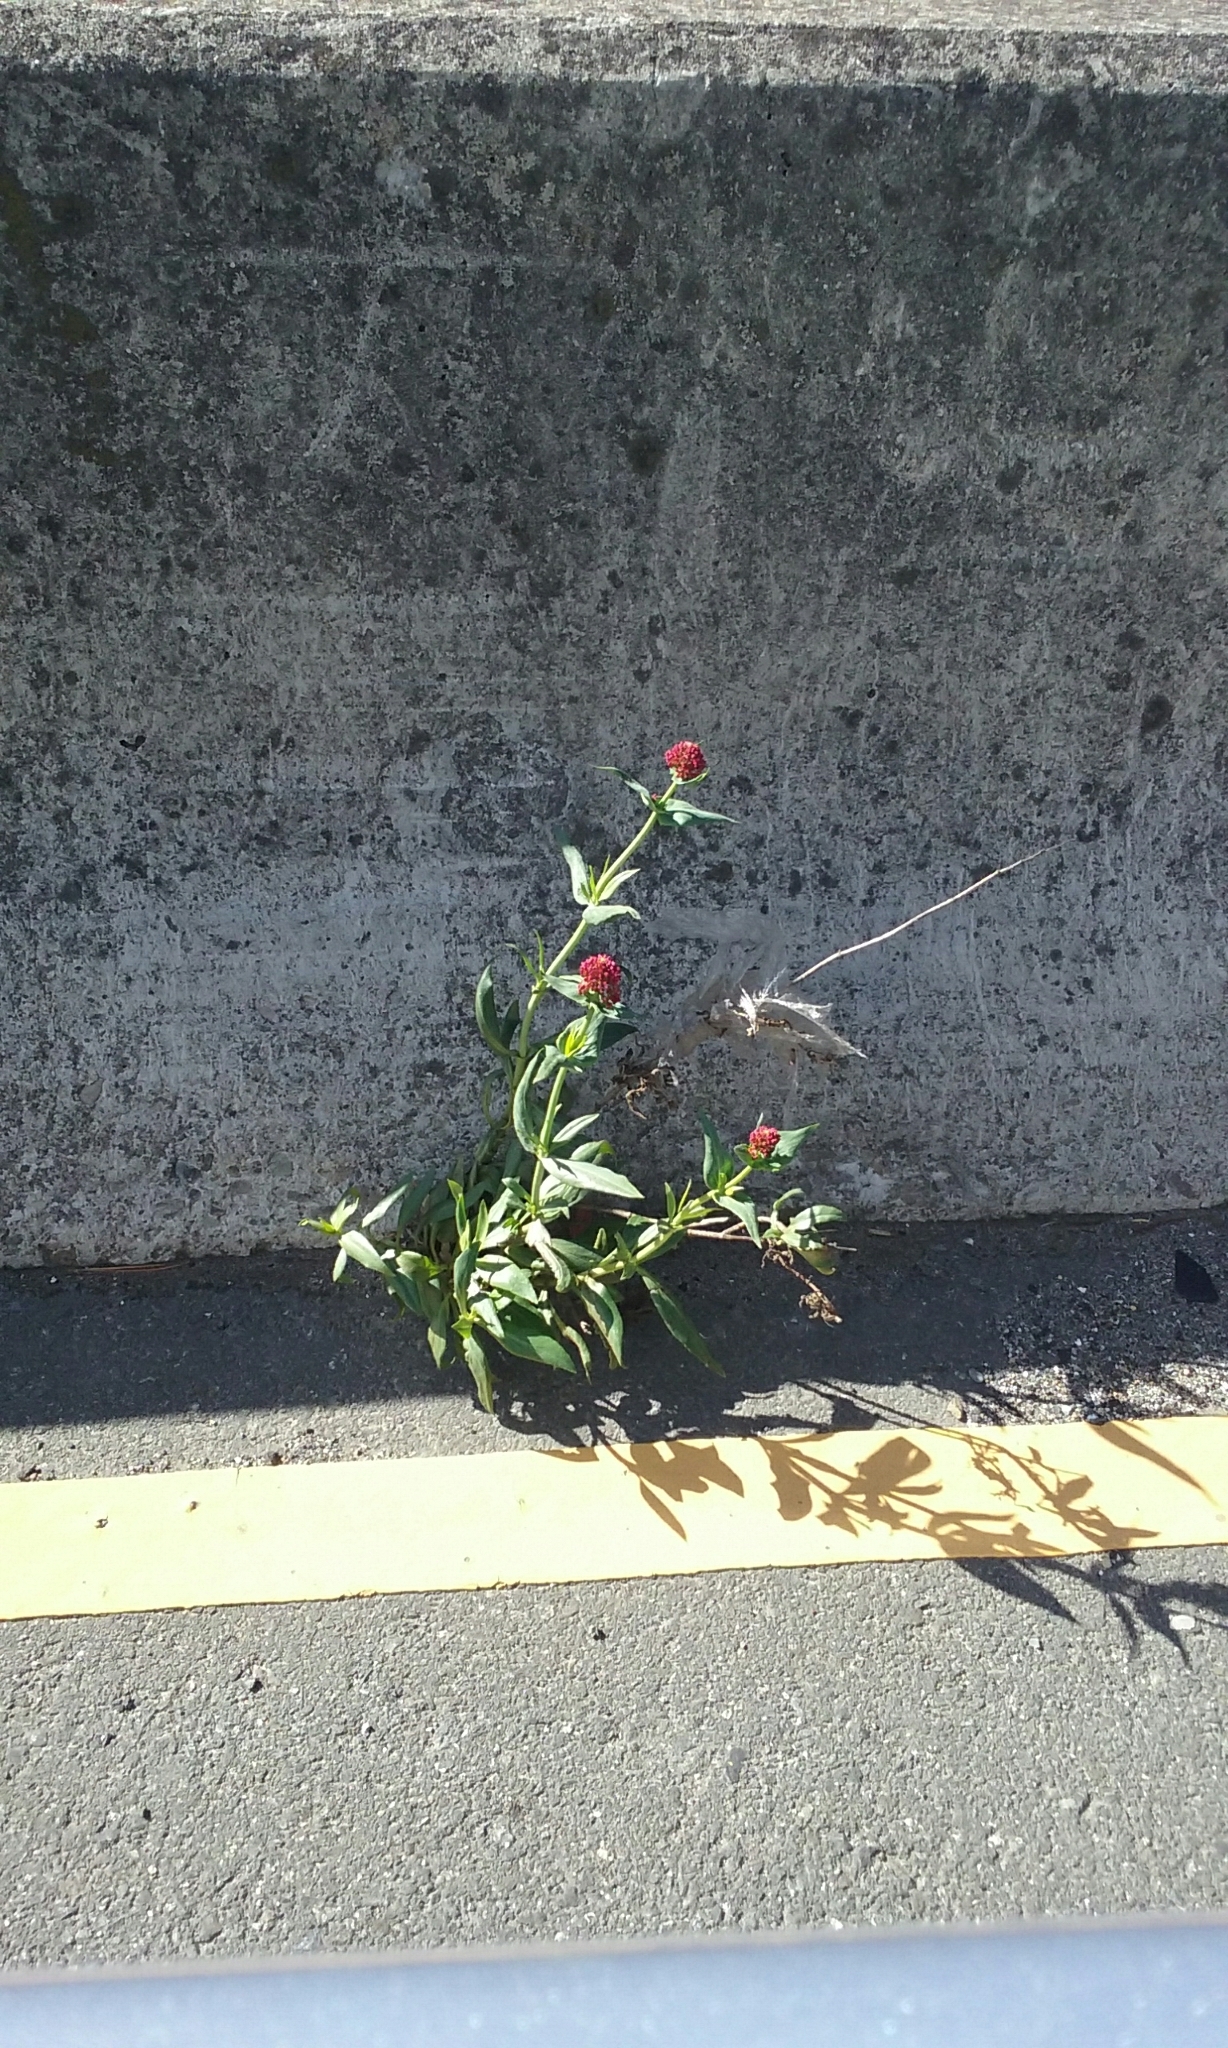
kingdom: Plantae
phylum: Tracheophyta
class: Magnoliopsida
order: Dipsacales
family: Caprifoliaceae
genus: Centranthus
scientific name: Centranthus ruber
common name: Red valerian
